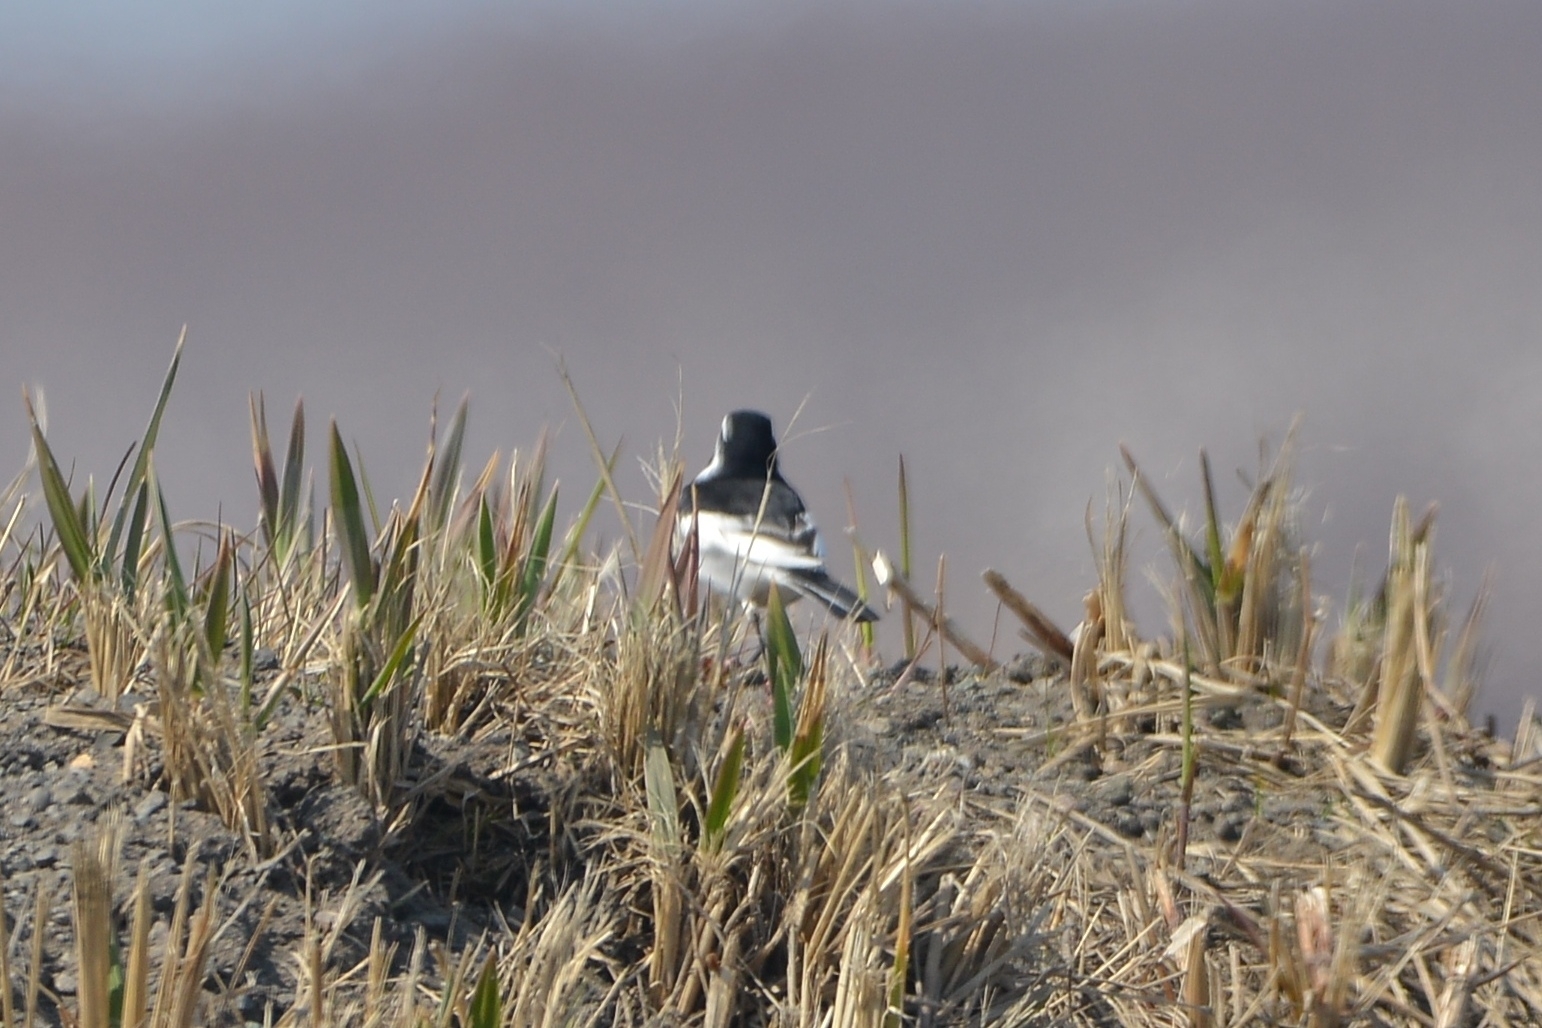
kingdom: Animalia
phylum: Chordata
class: Aves
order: Passeriformes
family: Motacillidae
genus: Motacilla
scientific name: Motacilla alba
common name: White wagtail
